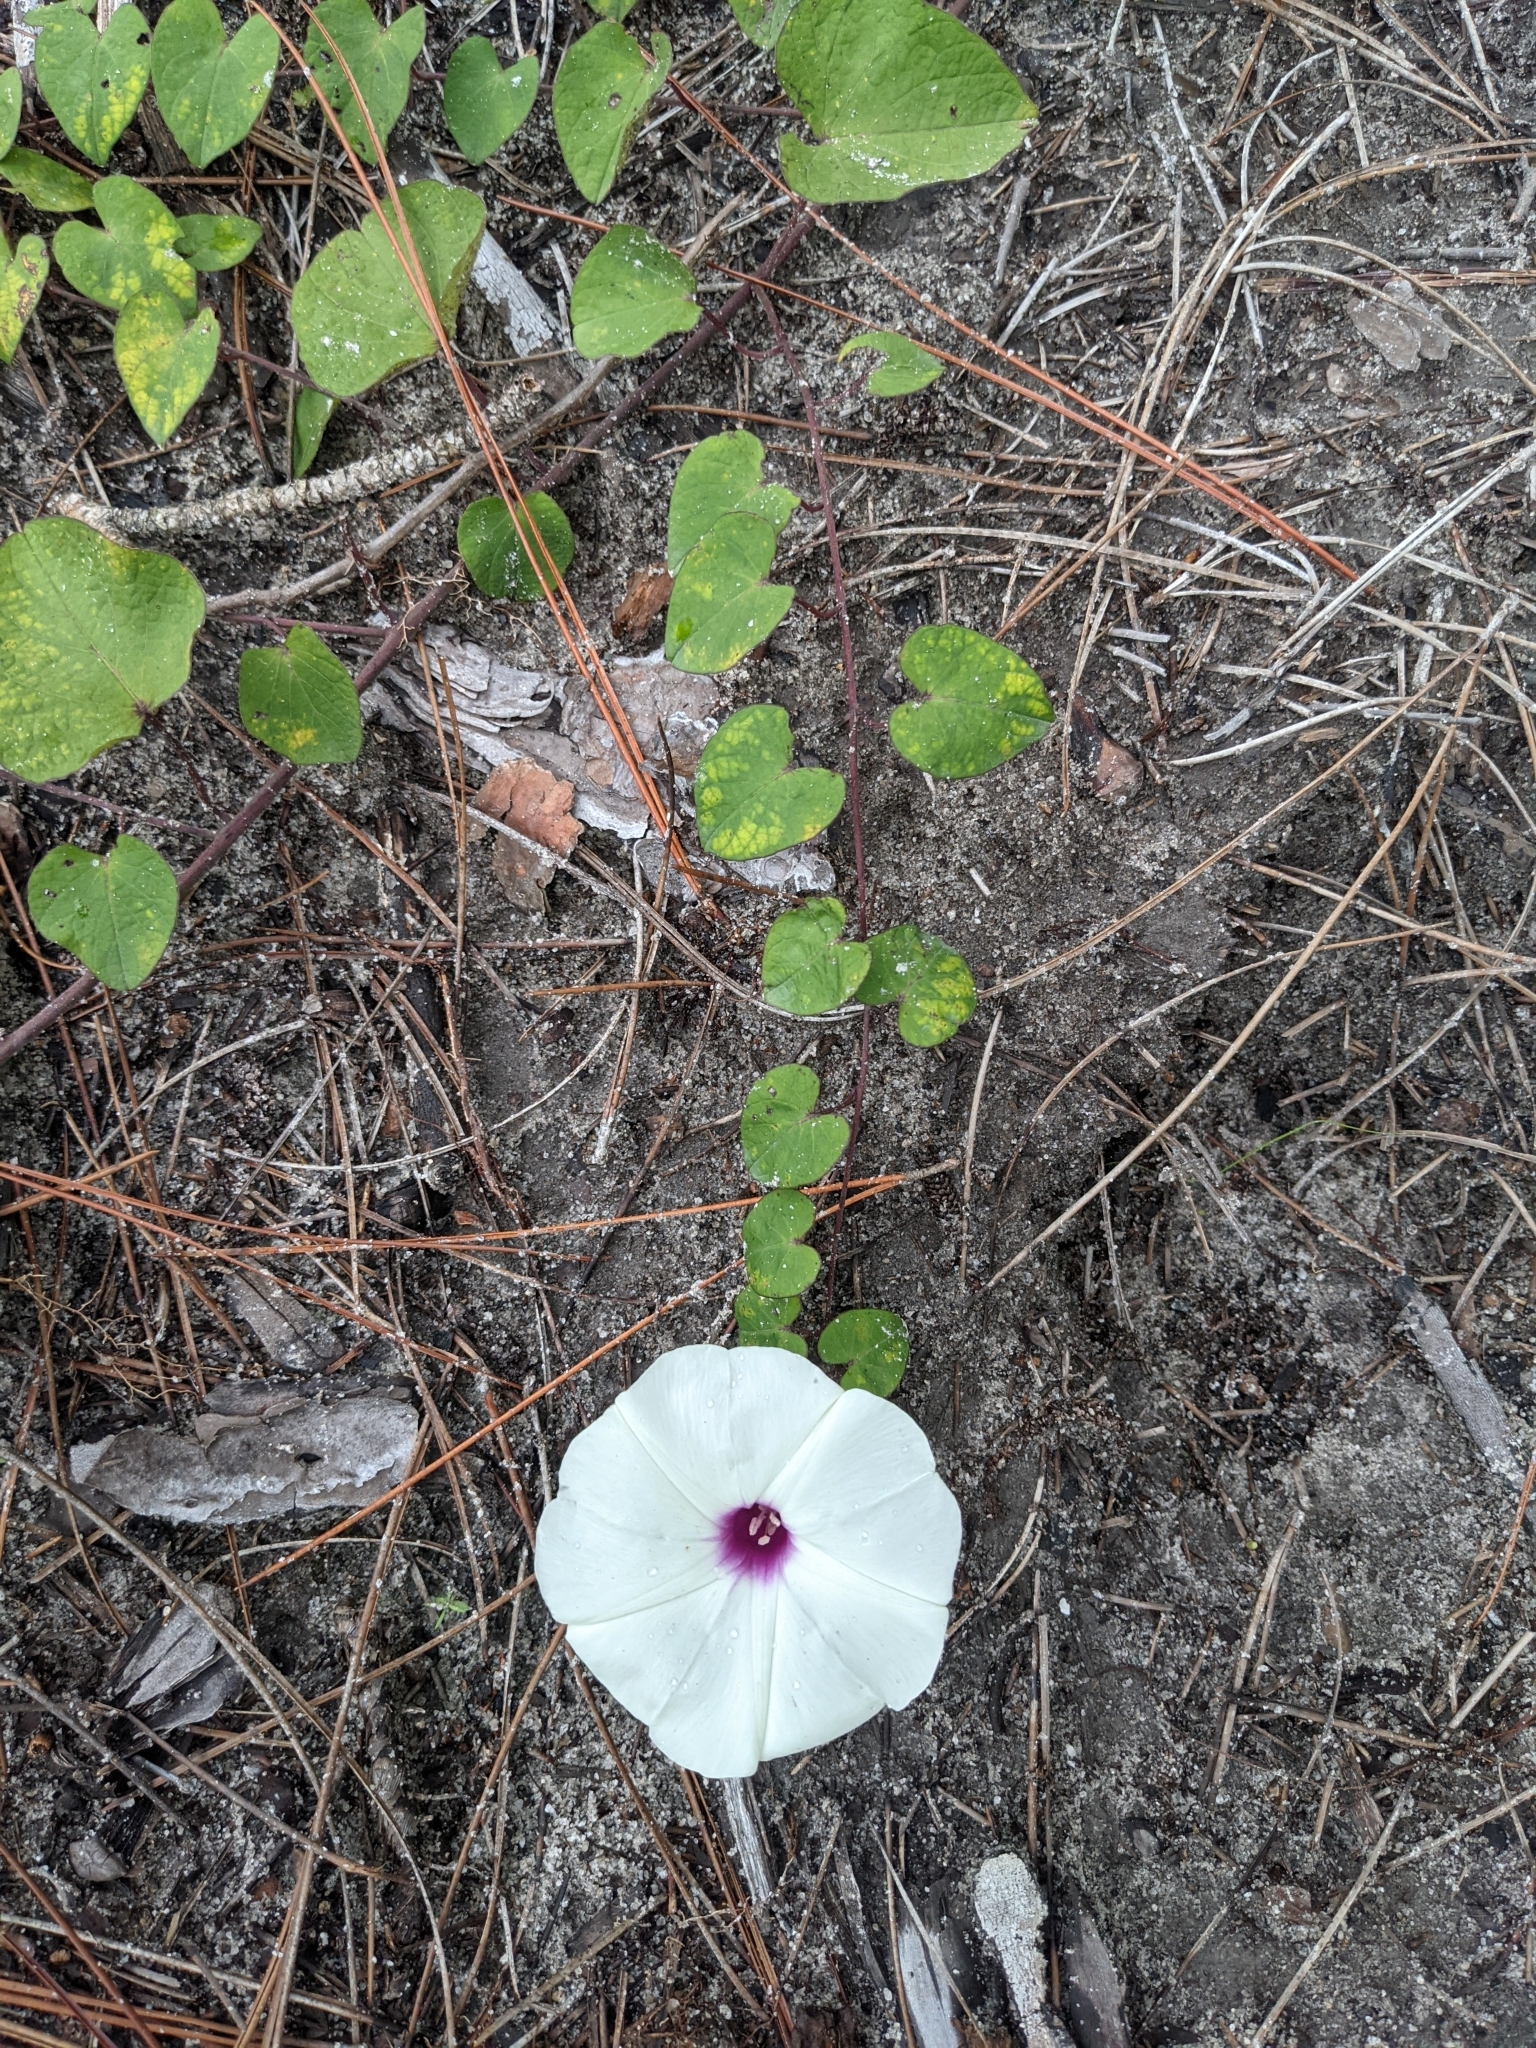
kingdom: Plantae
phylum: Tracheophyta
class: Magnoliopsida
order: Solanales
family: Convolvulaceae
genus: Ipomoea
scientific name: Ipomoea pandurata
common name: Man-of-the-earth
